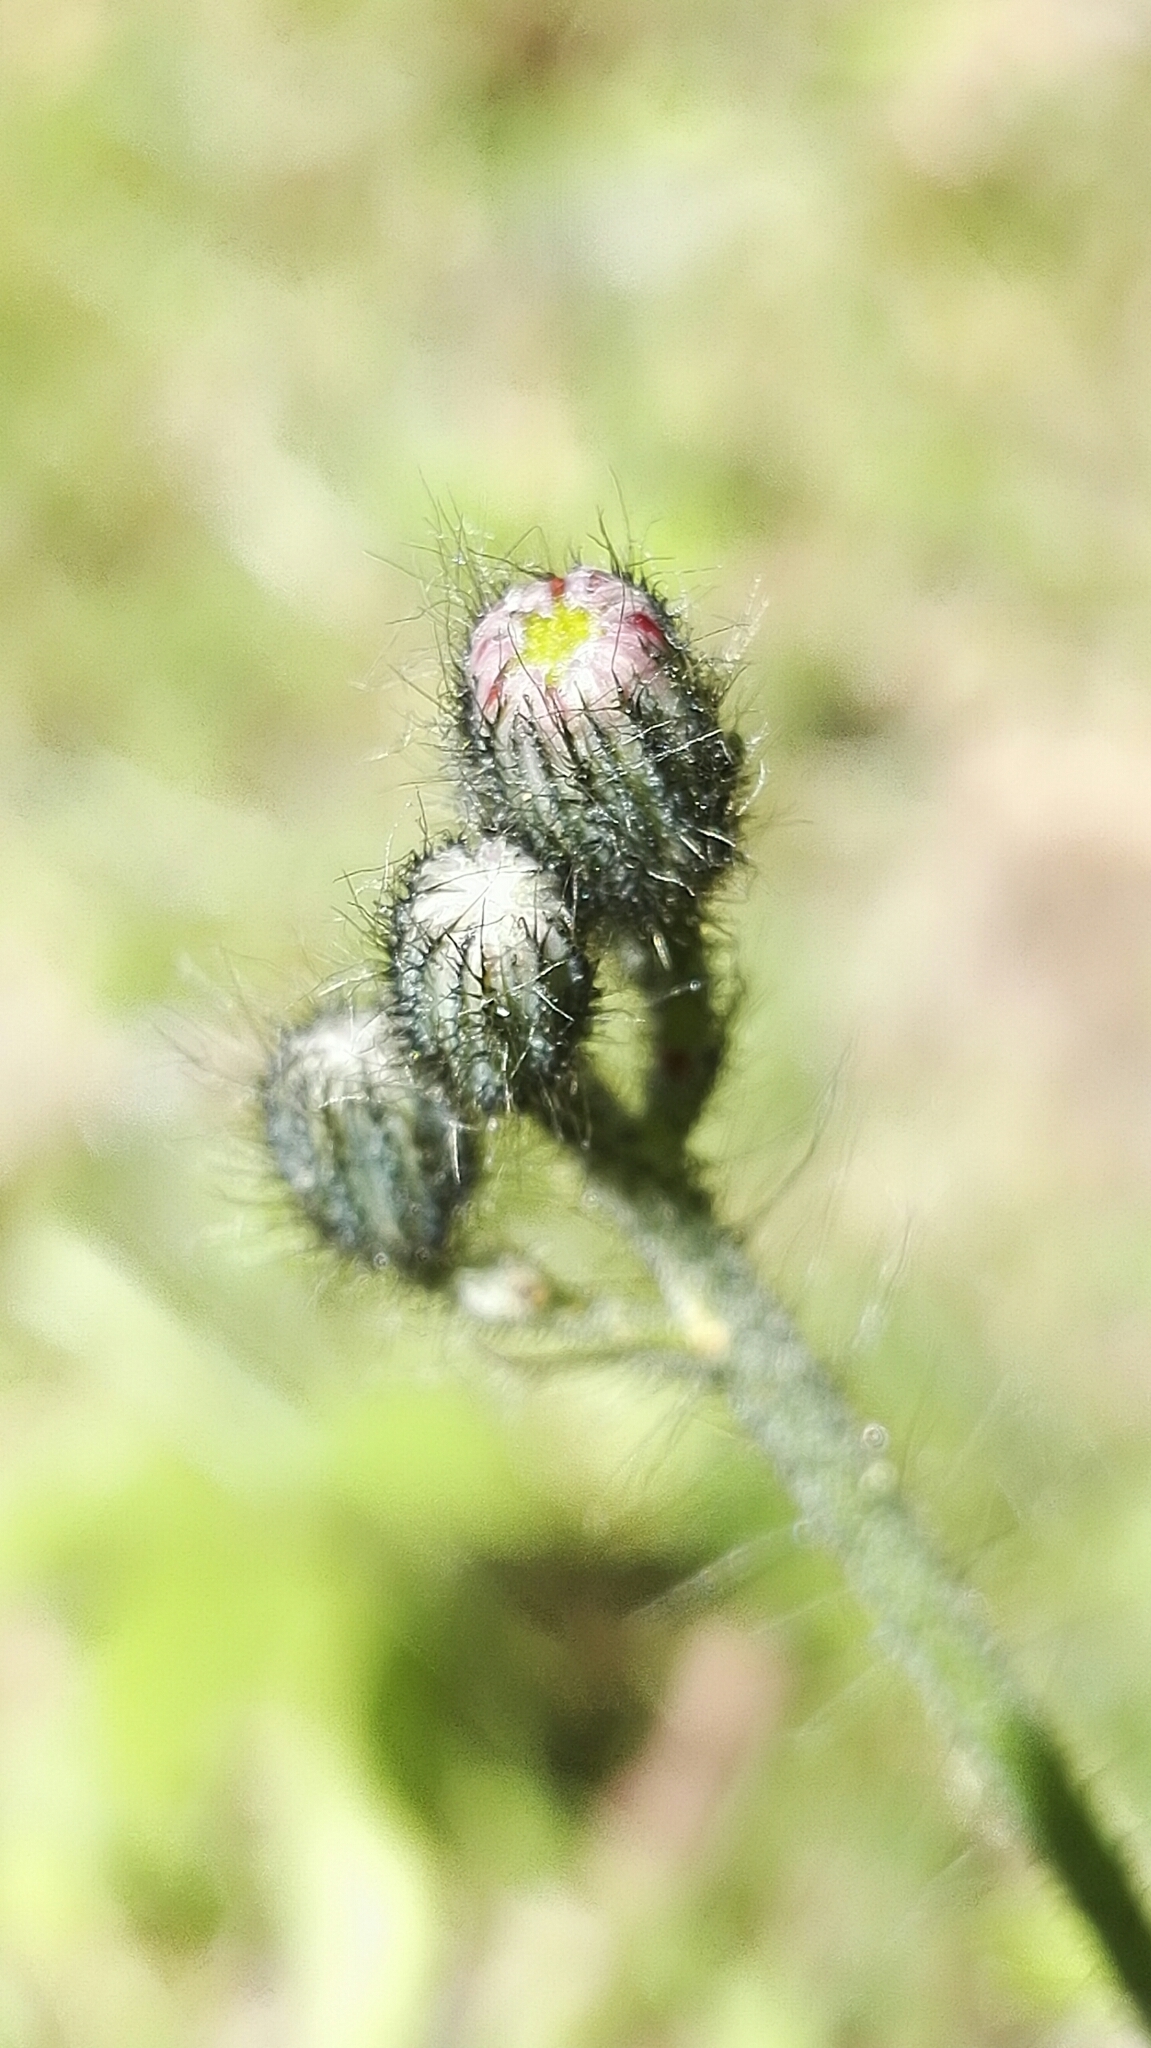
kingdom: Plantae
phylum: Tracheophyta
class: Magnoliopsida
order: Asterales
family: Asteraceae
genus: Pilosella
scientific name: Pilosella aurantiaca
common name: Fox-and-cubs
